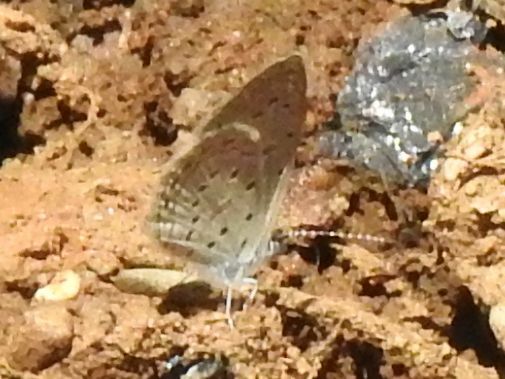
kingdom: Animalia
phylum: Arthropoda
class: Insecta
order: Lepidoptera
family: Lycaenidae
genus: Zizula
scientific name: Zizula hylax
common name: Gaika blue
